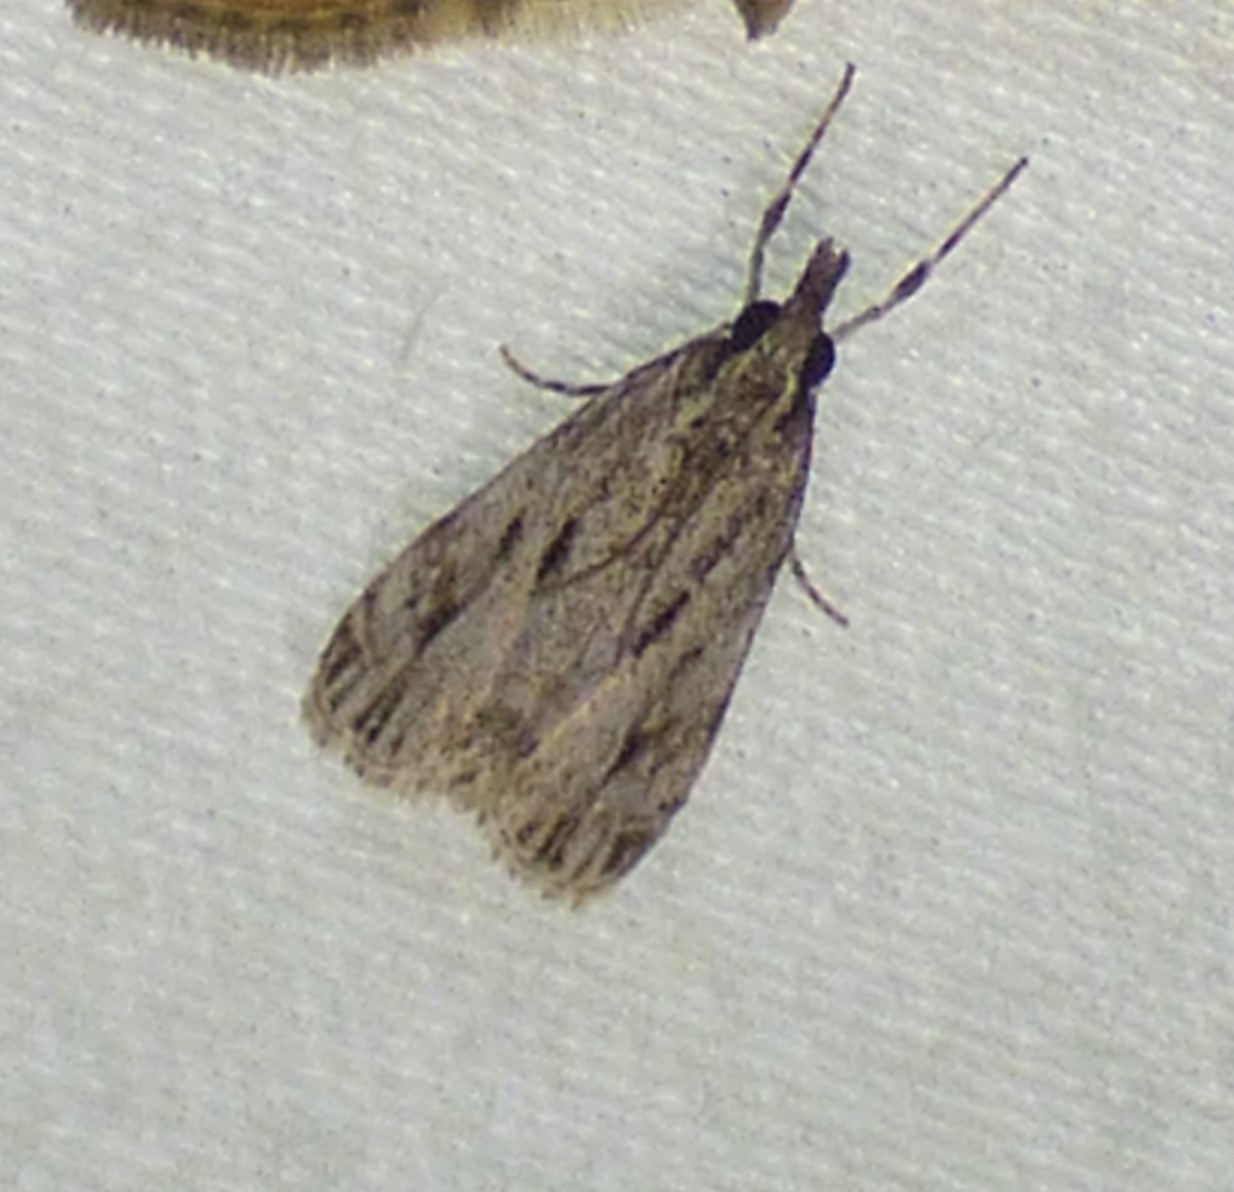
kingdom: Animalia
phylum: Arthropoda
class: Insecta
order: Lepidoptera
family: Crambidae
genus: Eudonia
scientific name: Eudonia strigalis
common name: Striped eudonia moth
